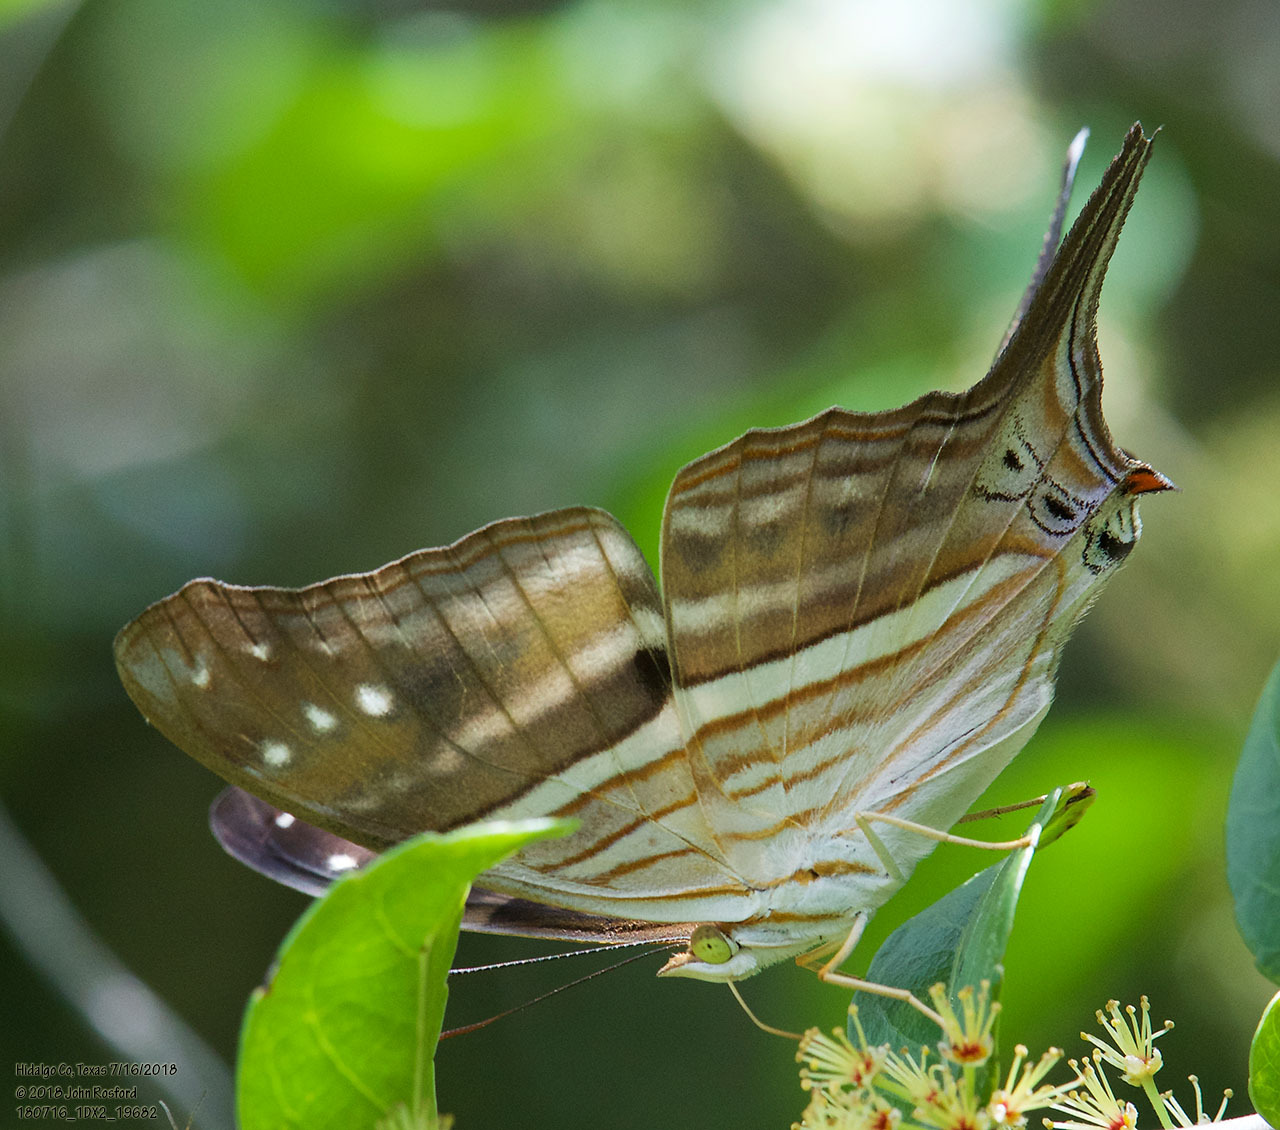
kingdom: Animalia
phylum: Arthropoda
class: Insecta
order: Lepidoptera
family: Nymphalidae
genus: Marpesia
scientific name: Marpesia chiron
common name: Many-banded daggerwing
